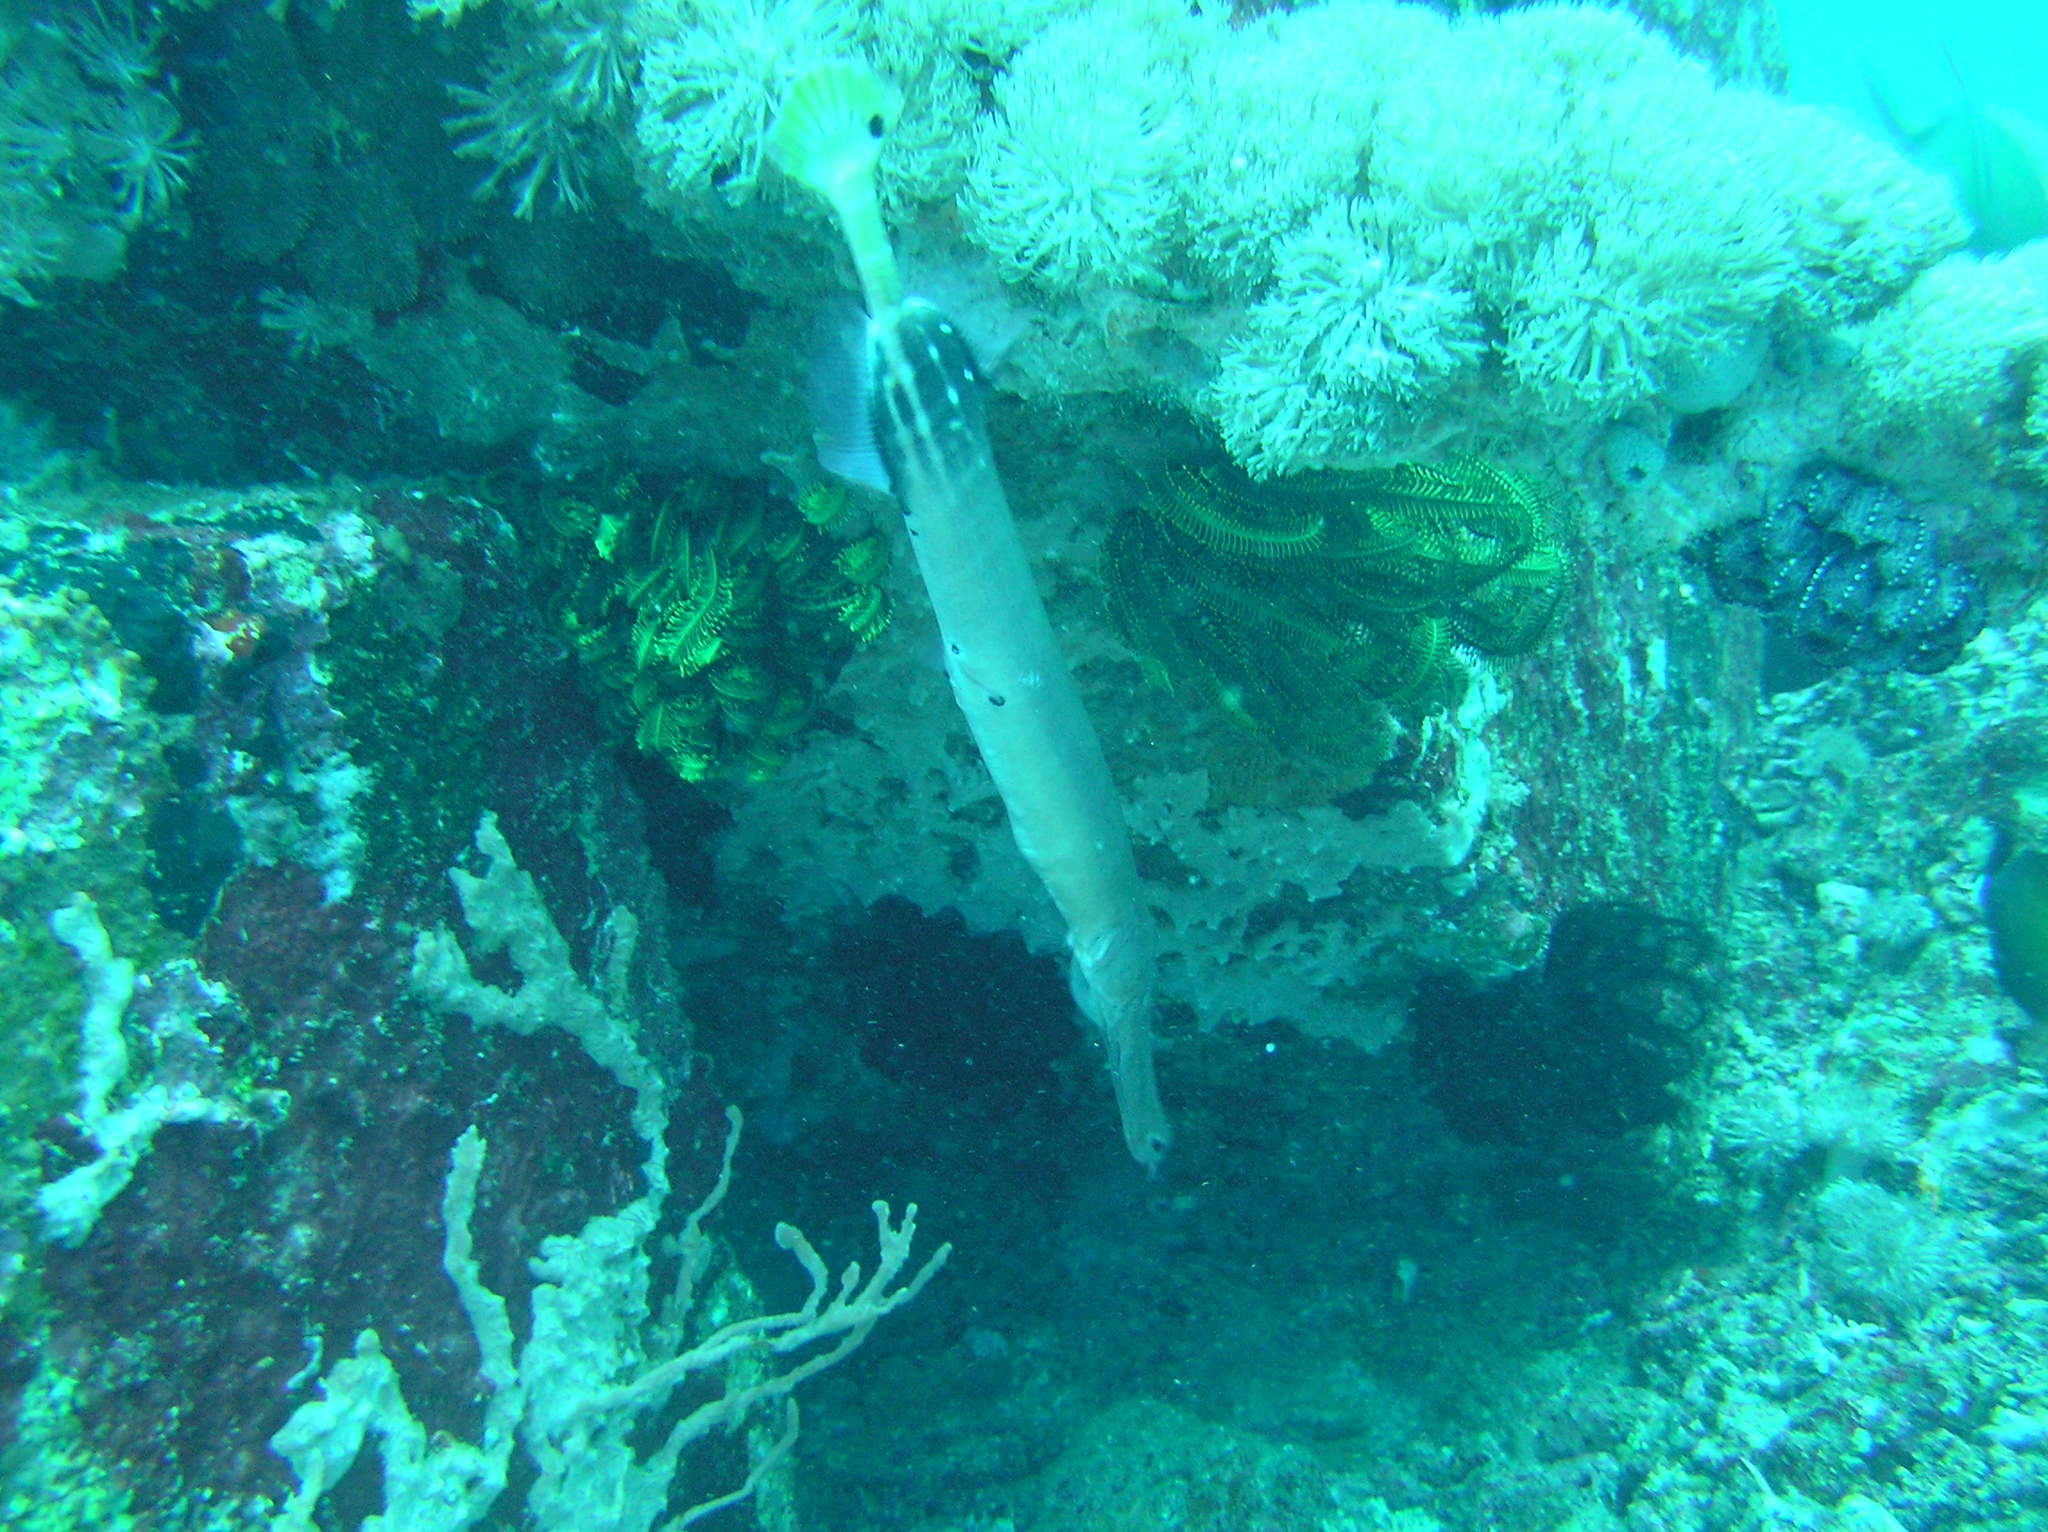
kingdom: Animalia
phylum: Chordata
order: Syngnathiformes
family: Aulostomidae
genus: Aulostomus
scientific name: Aulostomus chinensis
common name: Chinese trumpetfish
